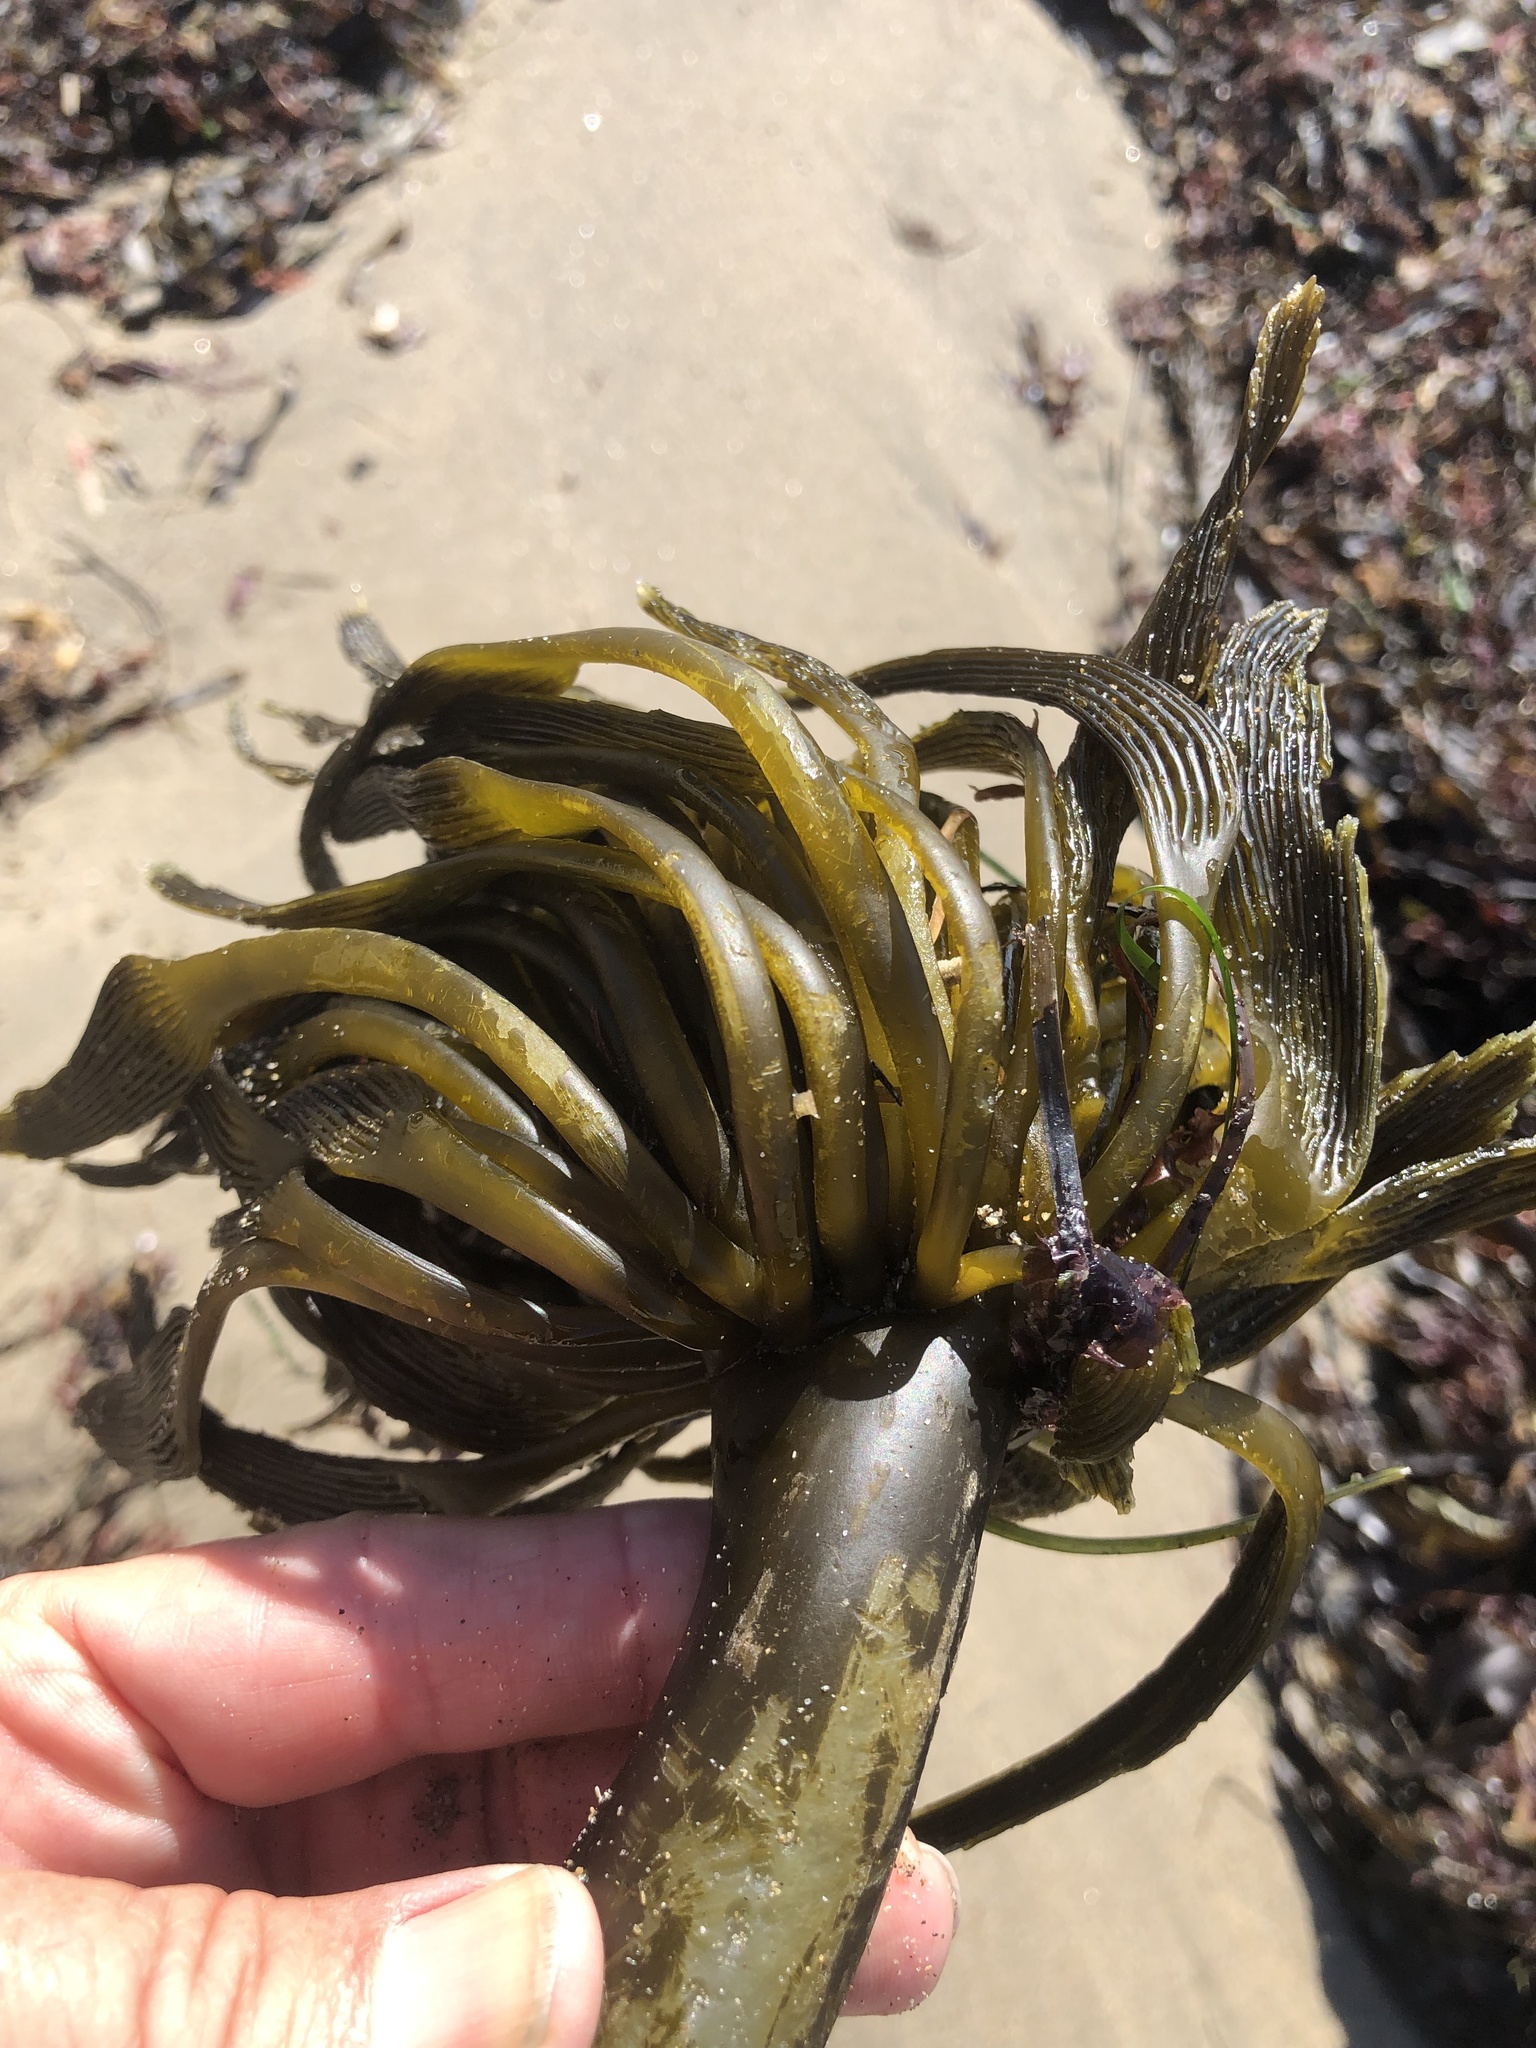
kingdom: Chromista
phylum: Ochrophyta
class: Phaeophyceae
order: Laminariales
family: Laminariaceae
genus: Postelsia
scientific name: Postelsia palmiformis
